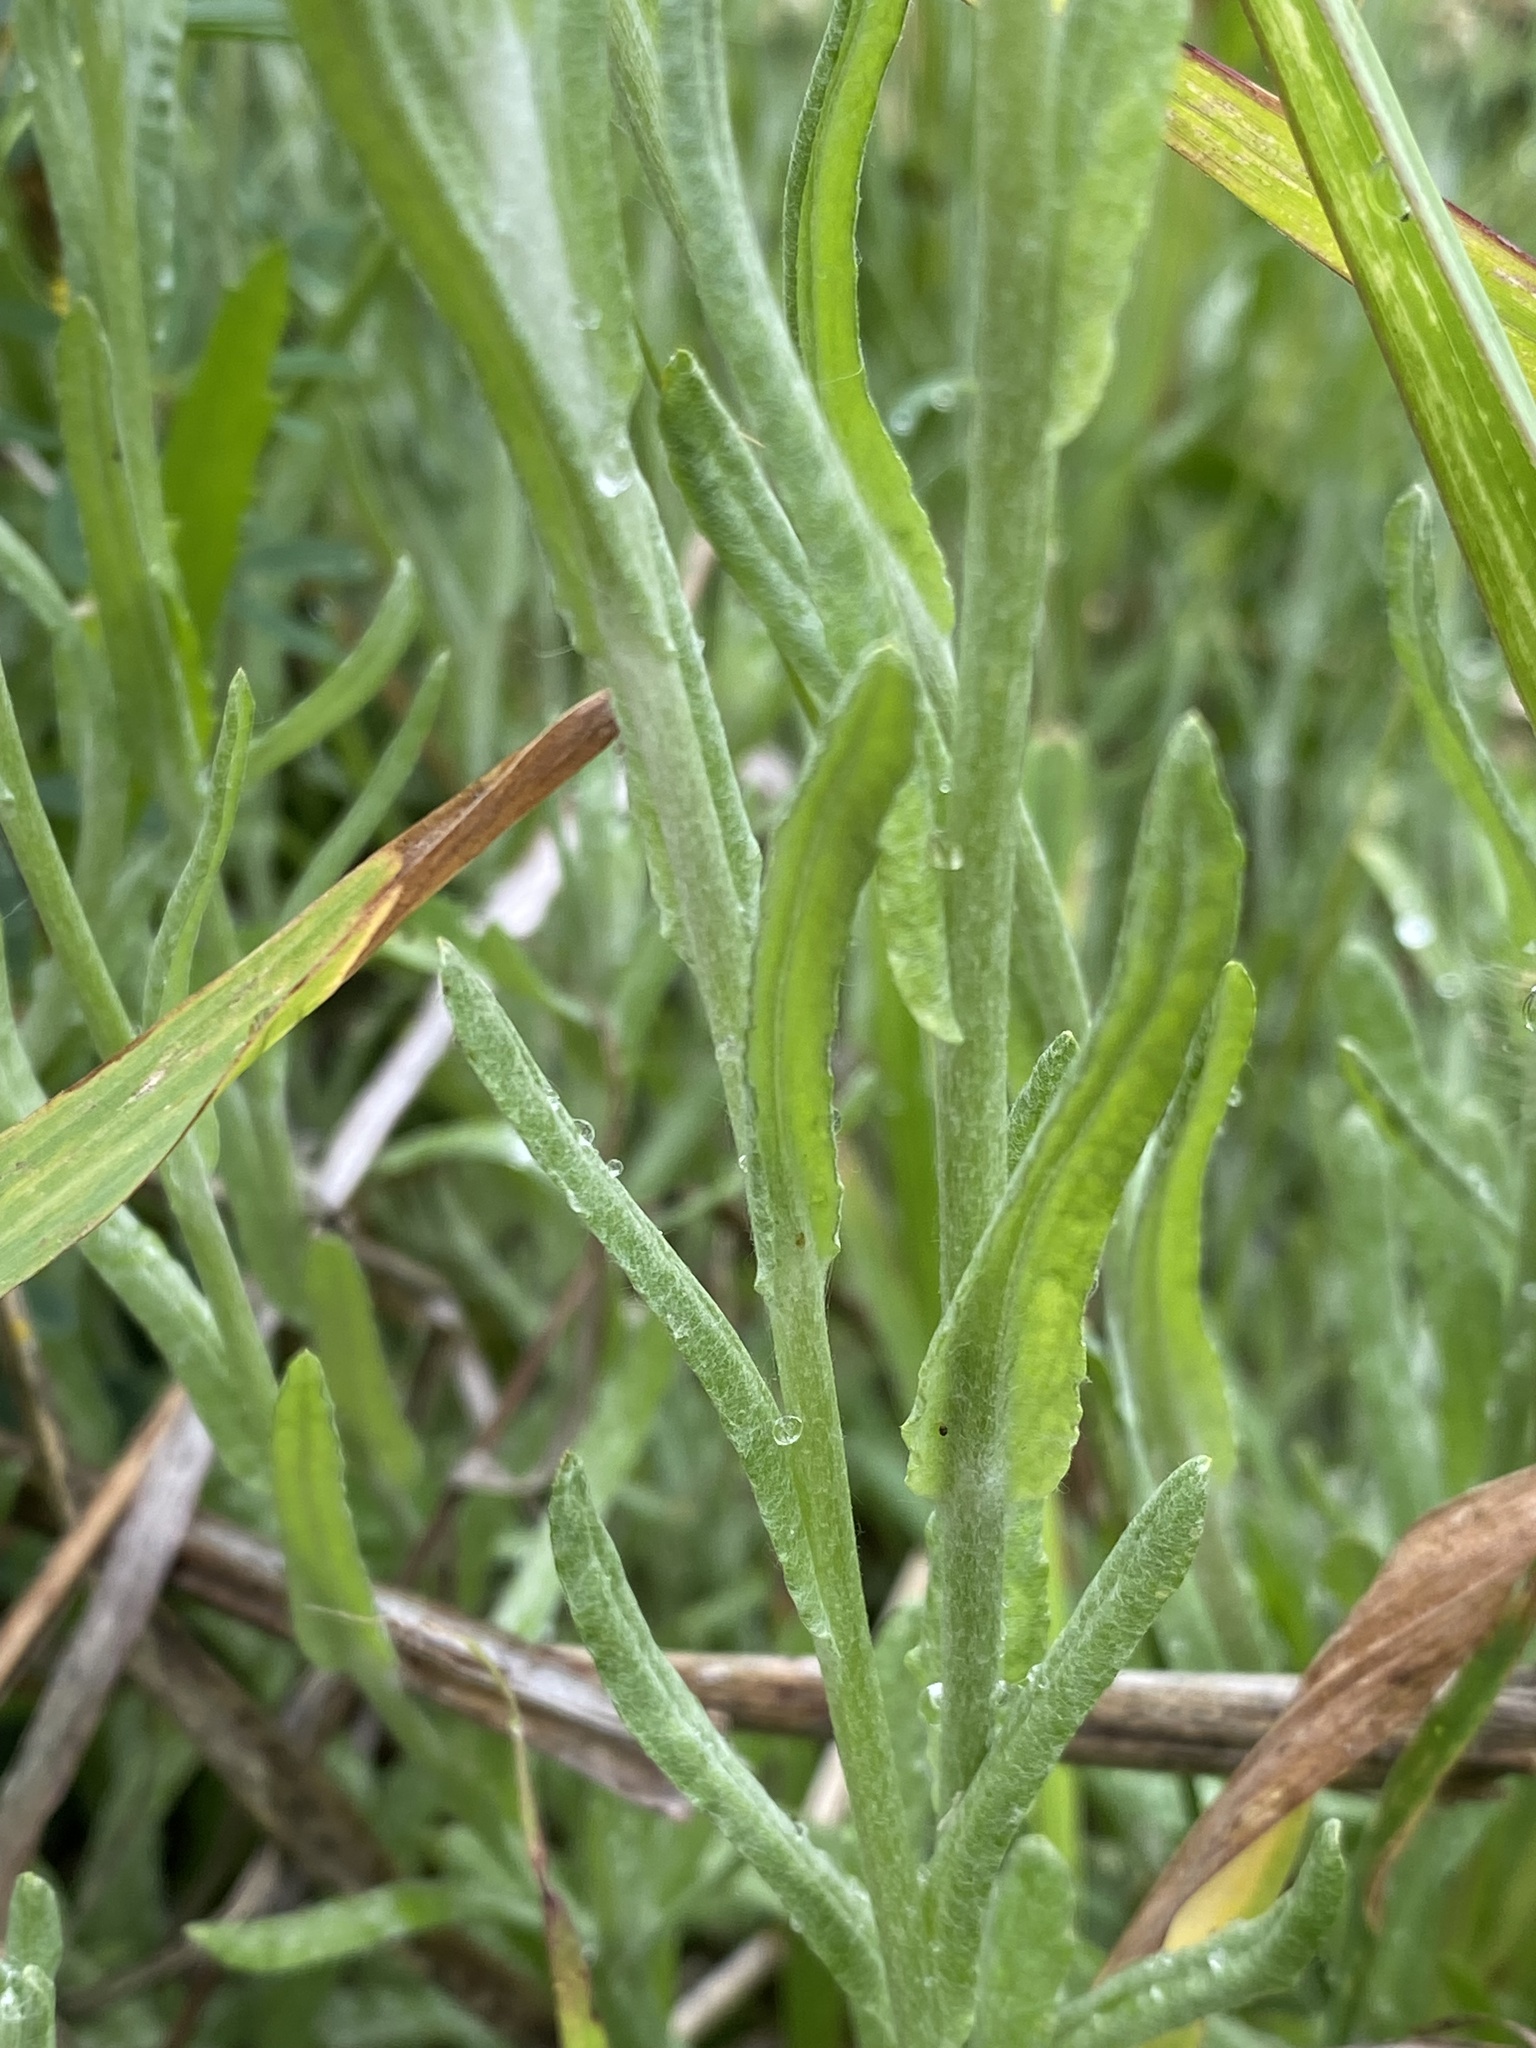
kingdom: Plantae
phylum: Tracheophyta
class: Magnoliopsida
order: Asterales
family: Asteraceae
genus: Helichrysum
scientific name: Helichrysum luteoalbum
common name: Daisy
